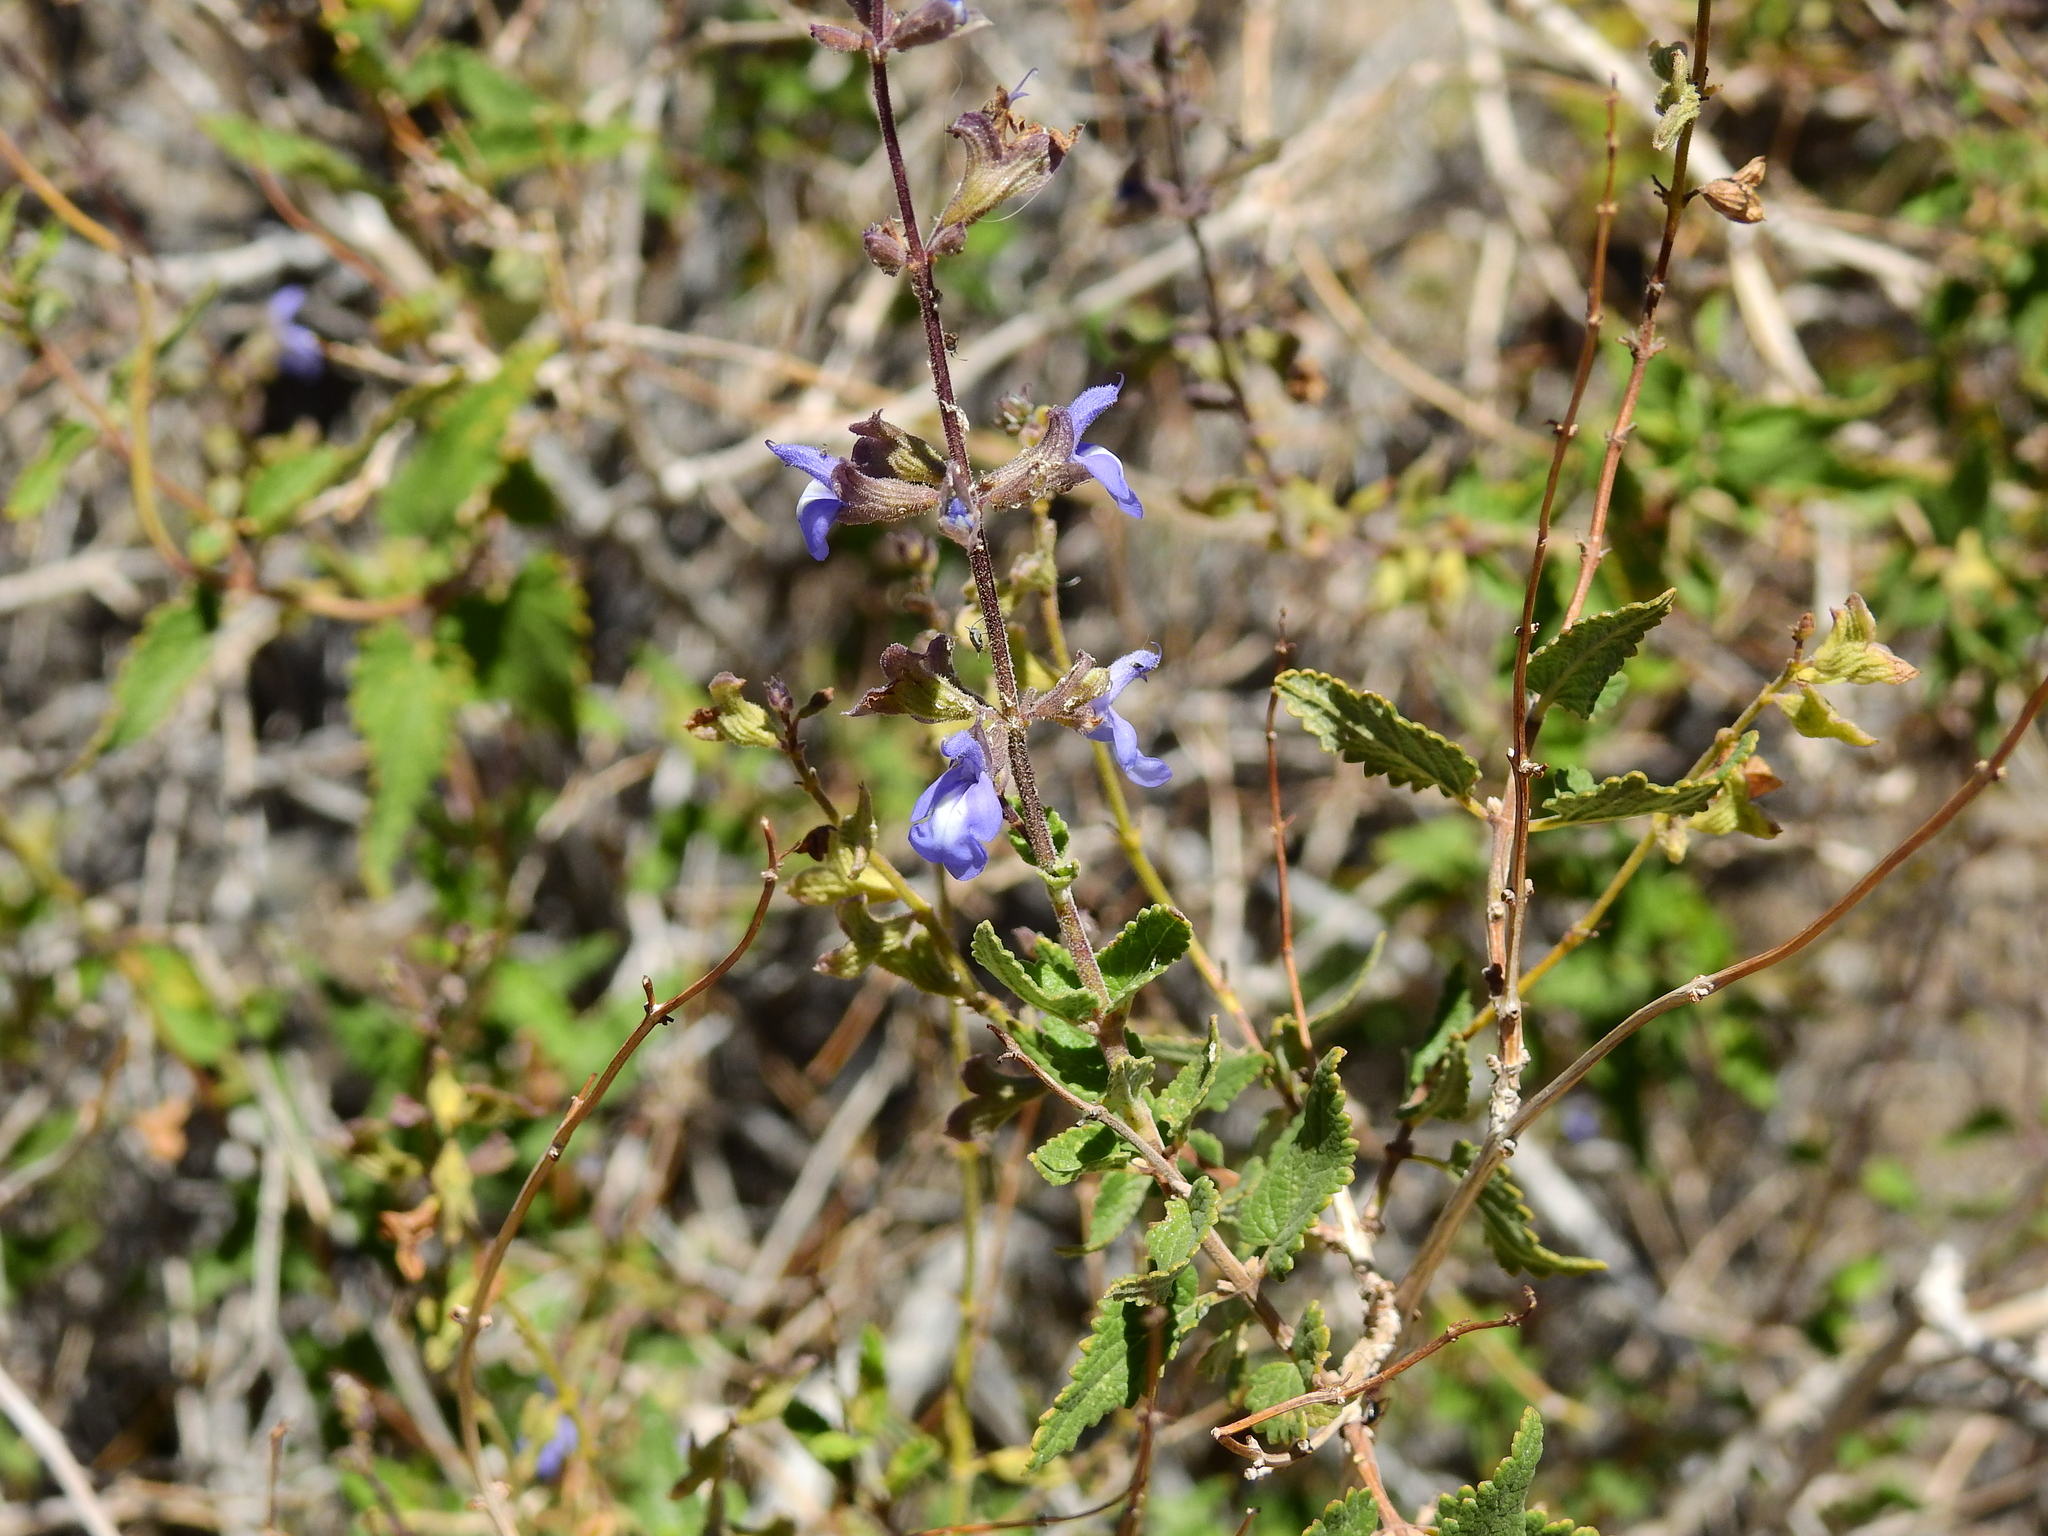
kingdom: Plantae
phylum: Tracheophyta
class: Magnoliopsida
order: Lamiales
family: Lamiaceae
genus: Salvia
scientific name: Salvia cuspidata
